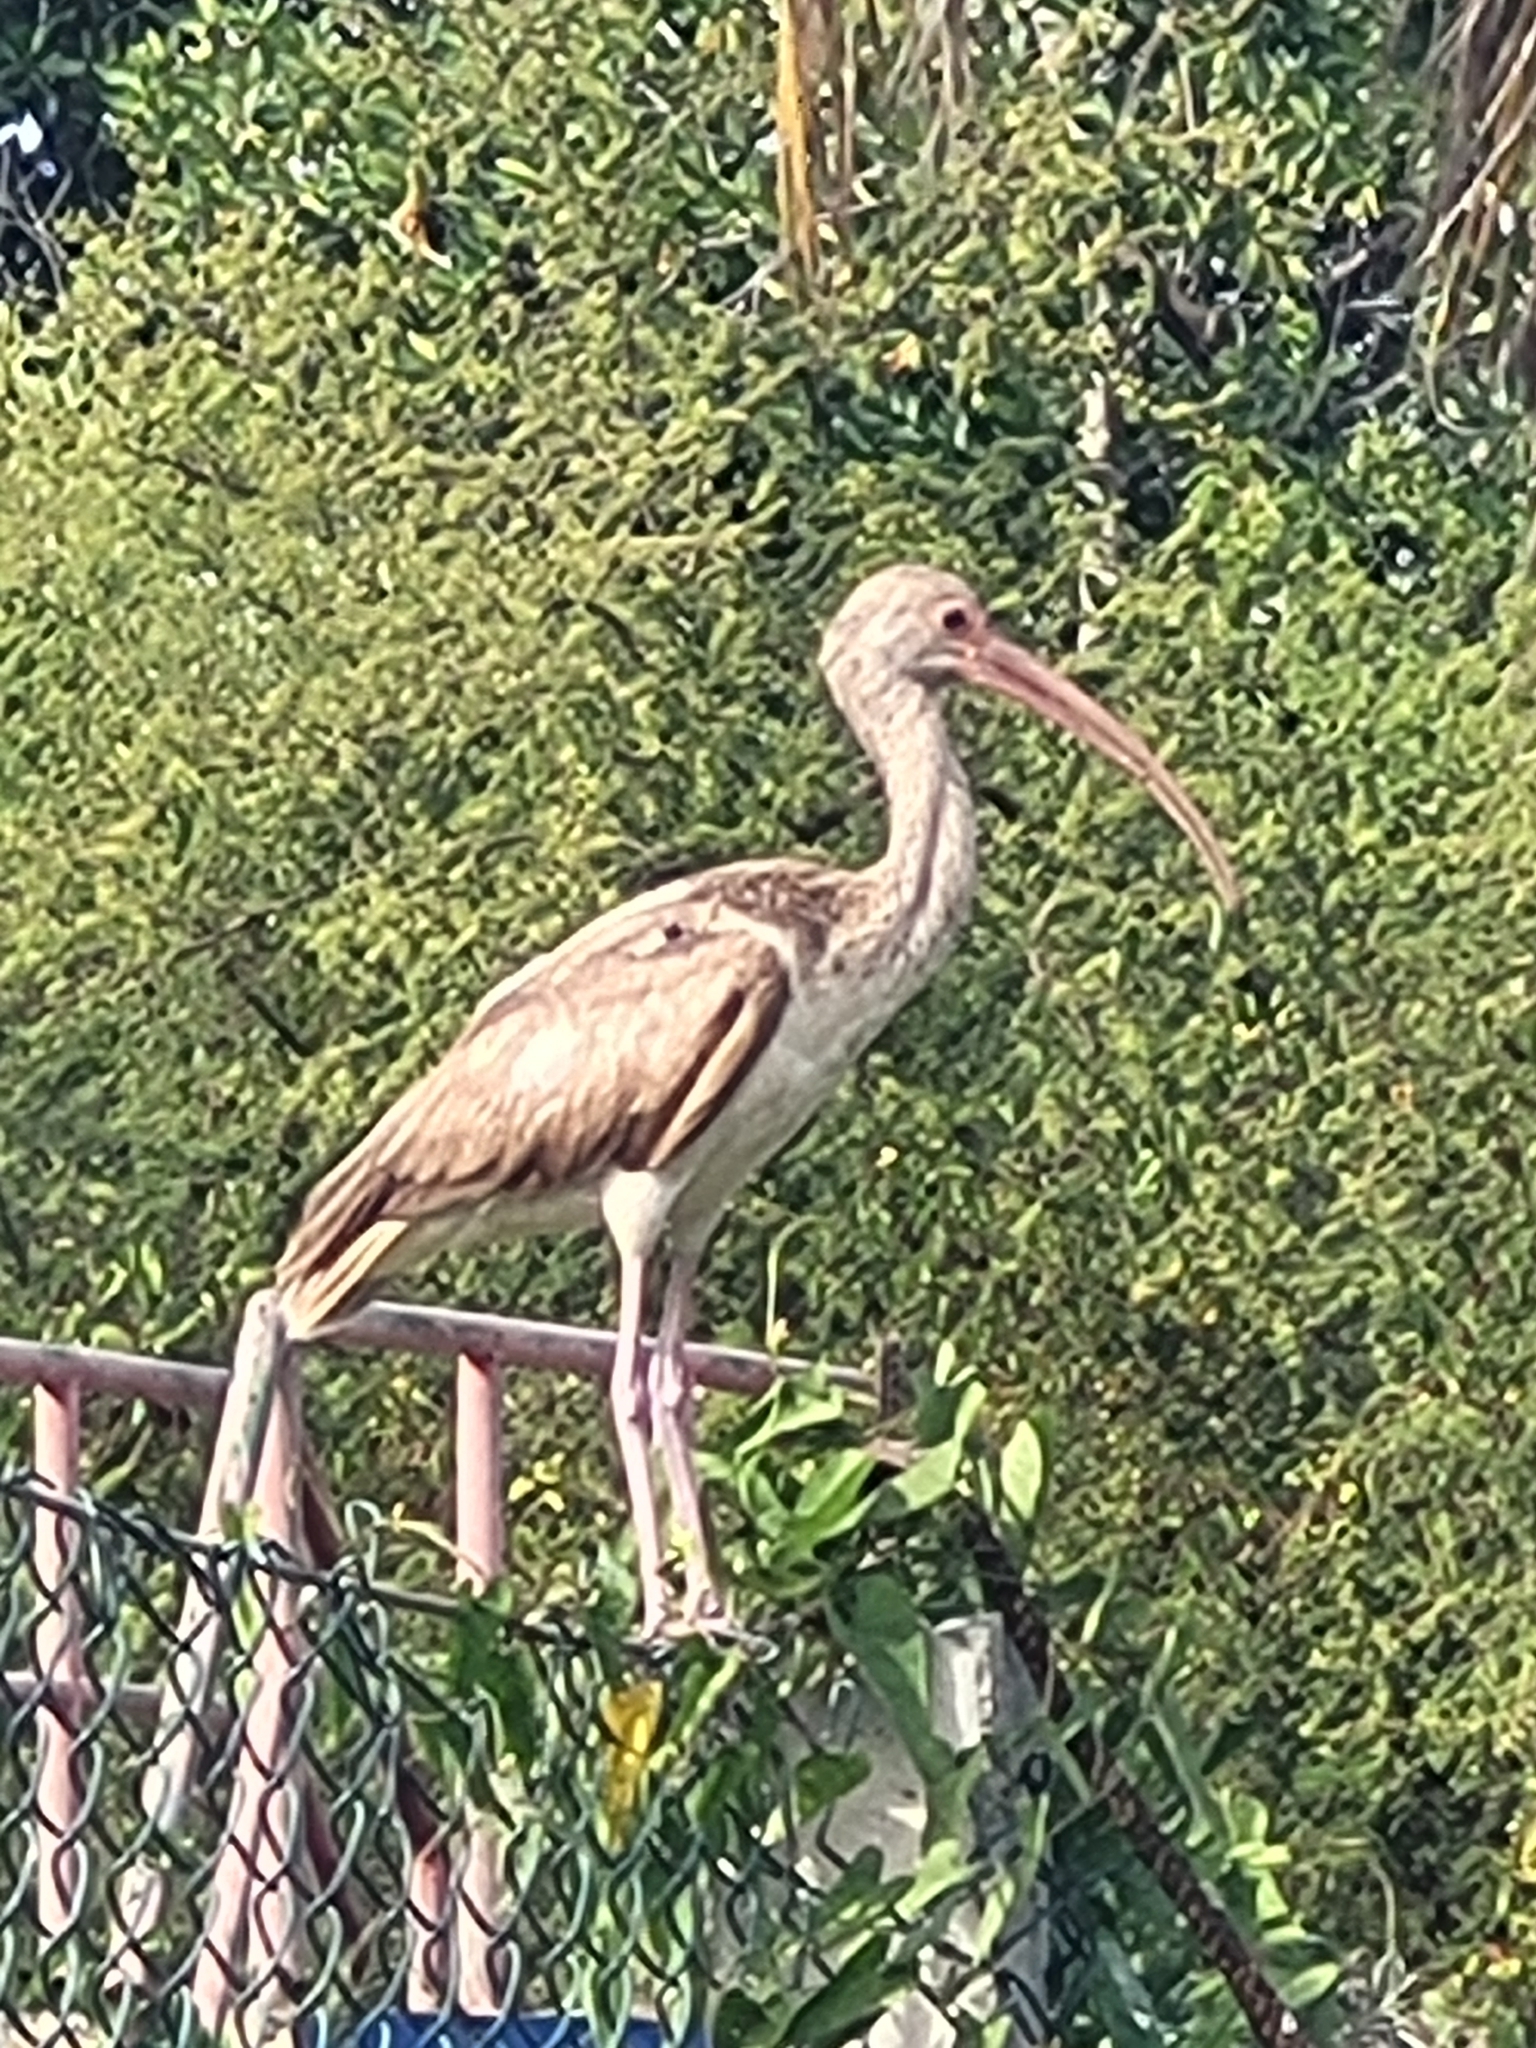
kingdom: Animalia
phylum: Chordata
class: Aves
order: Pelecaniformes
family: Threskiornithidae
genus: Eudocimus
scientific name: Eudocimus albus
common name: White ibis
